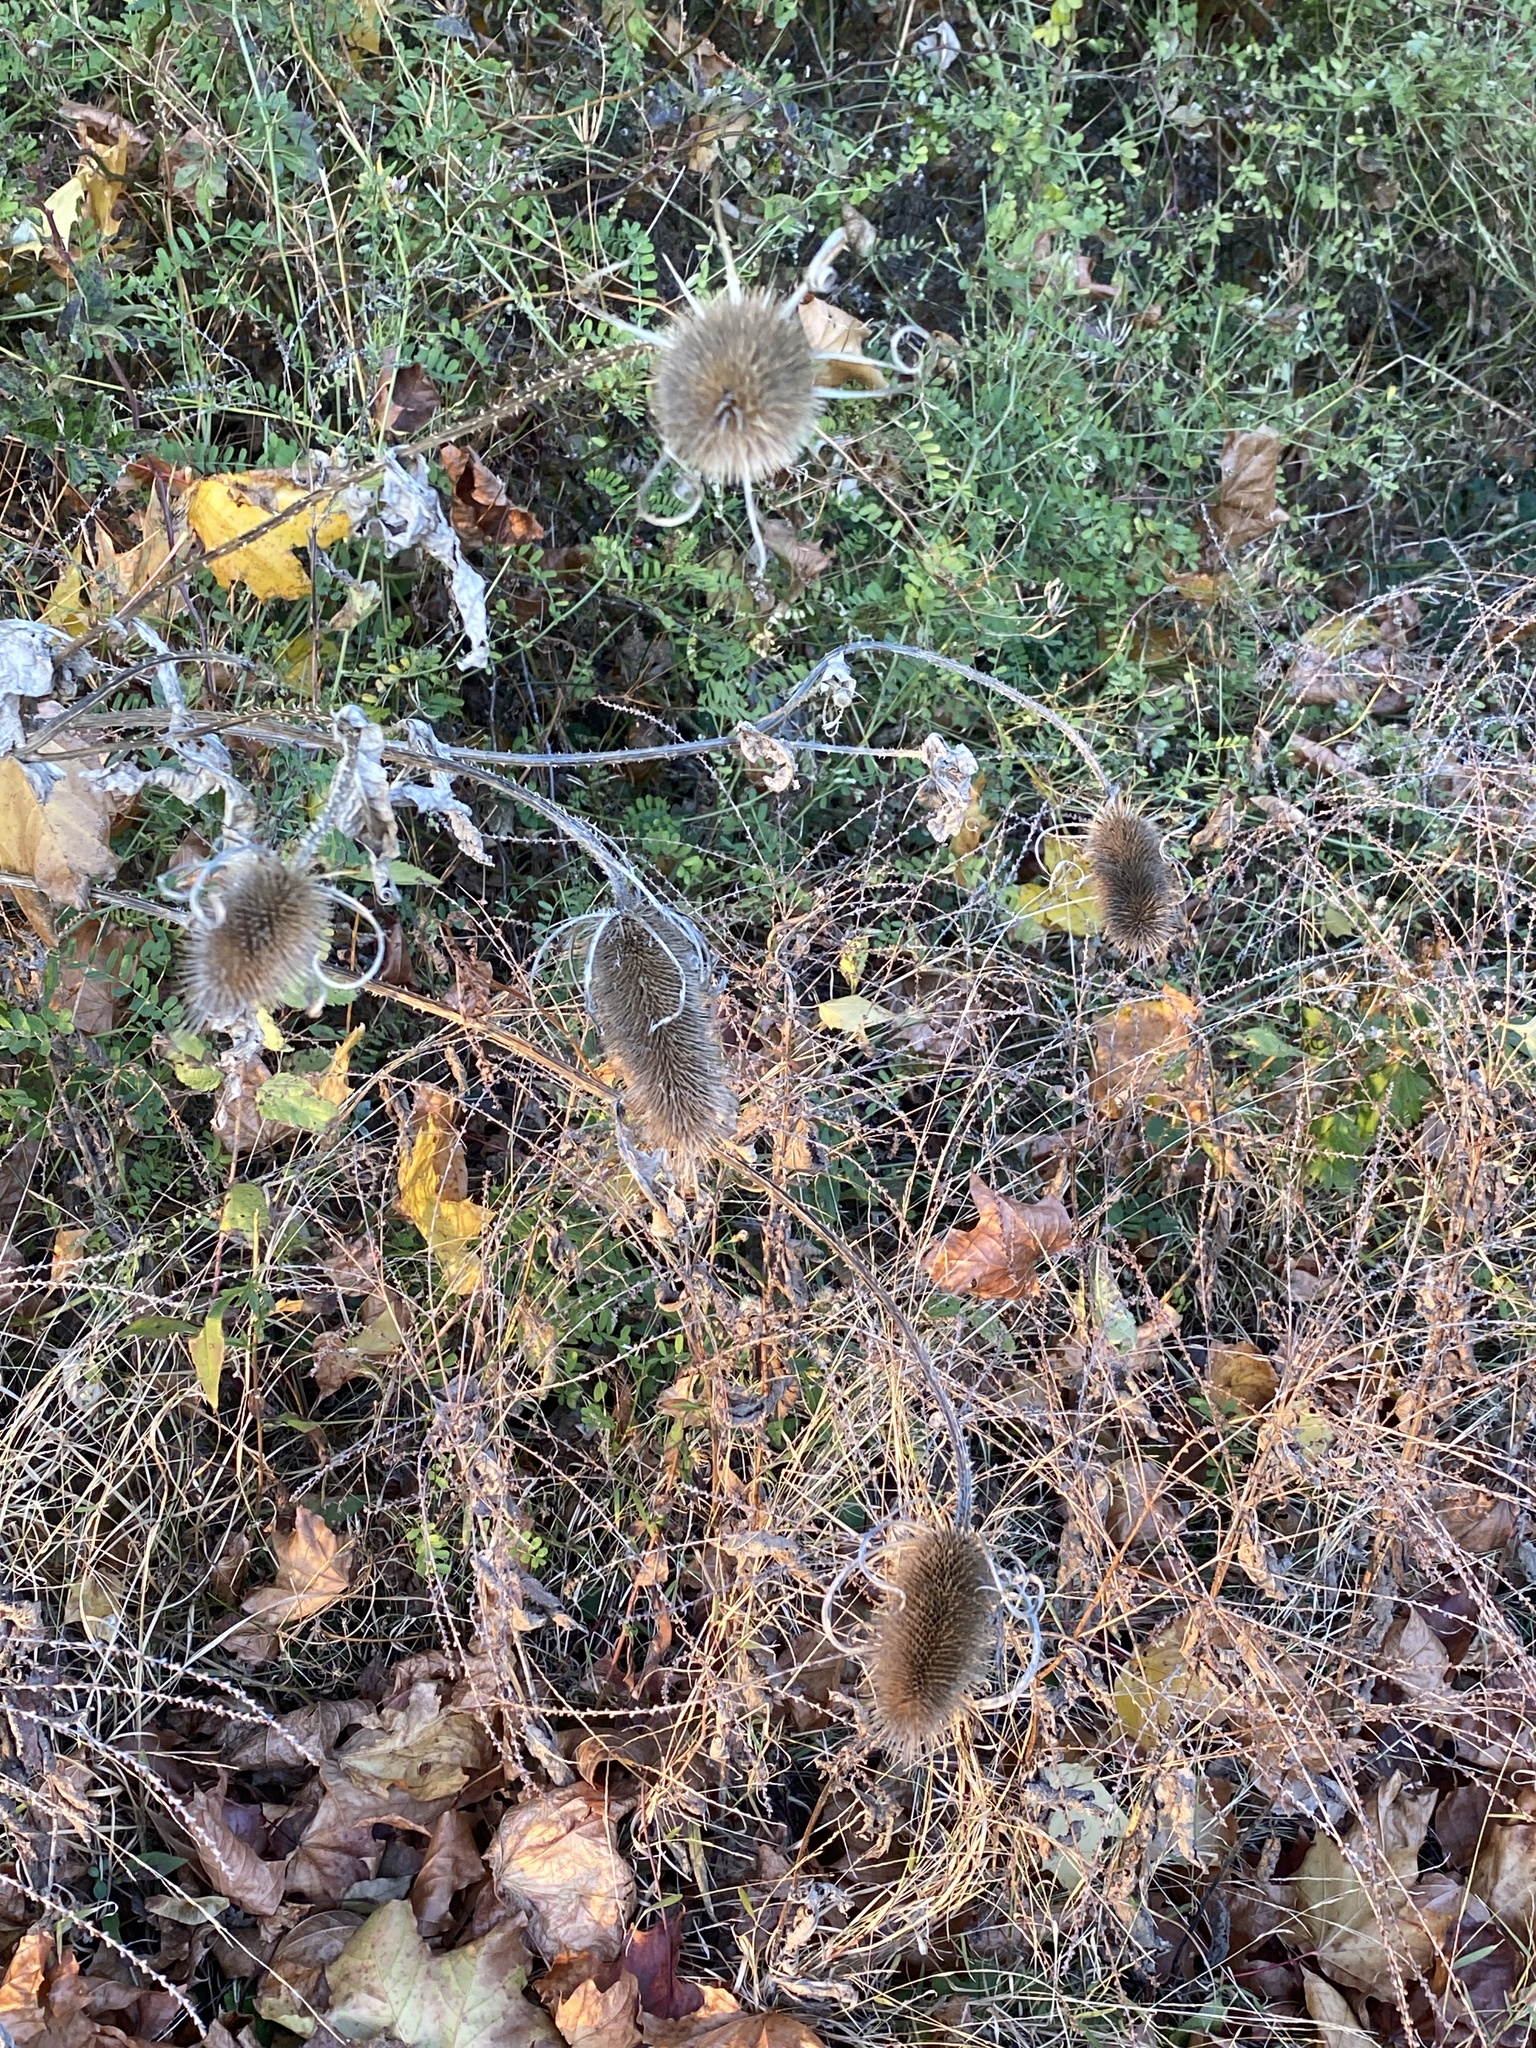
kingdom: Plantae
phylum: Tracheophyta
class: Magnoliopsida
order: Dipsacales
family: Caprifoliaceae
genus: Dipsacus
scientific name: Dipsacus fullonum
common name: Teasel
